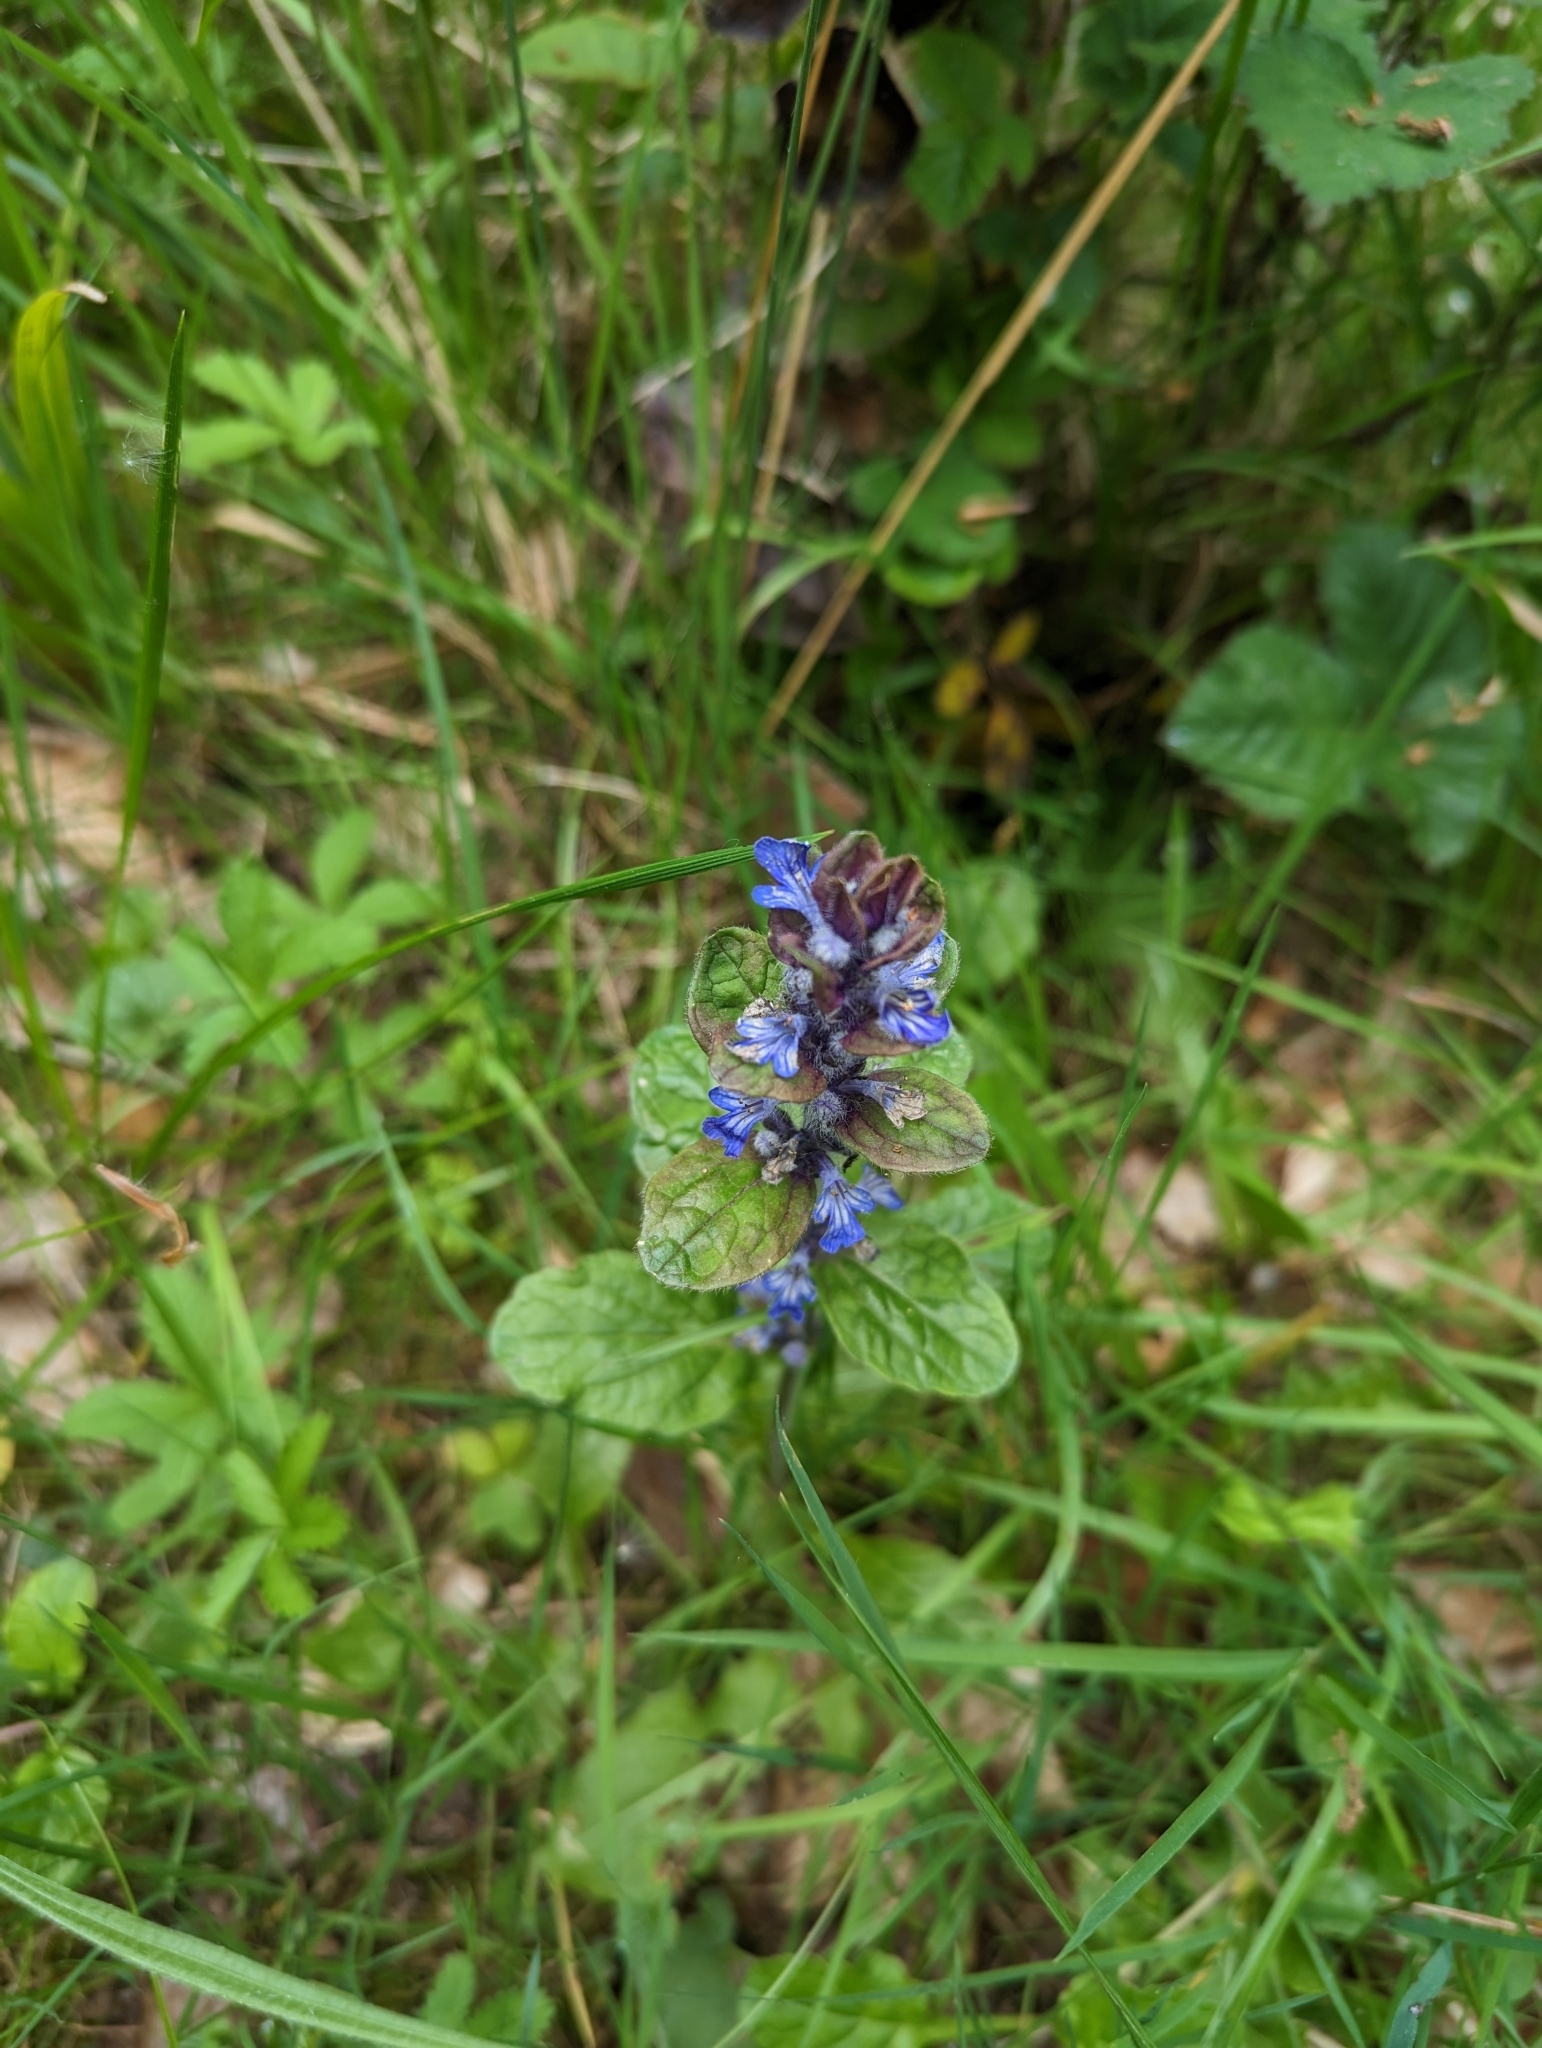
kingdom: Plantae
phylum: Tracheophyta
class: Magnoliopsida
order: Lamiales
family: Lamiaceae
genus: Ajuga
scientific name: Ajuga reptans
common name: Bugle
